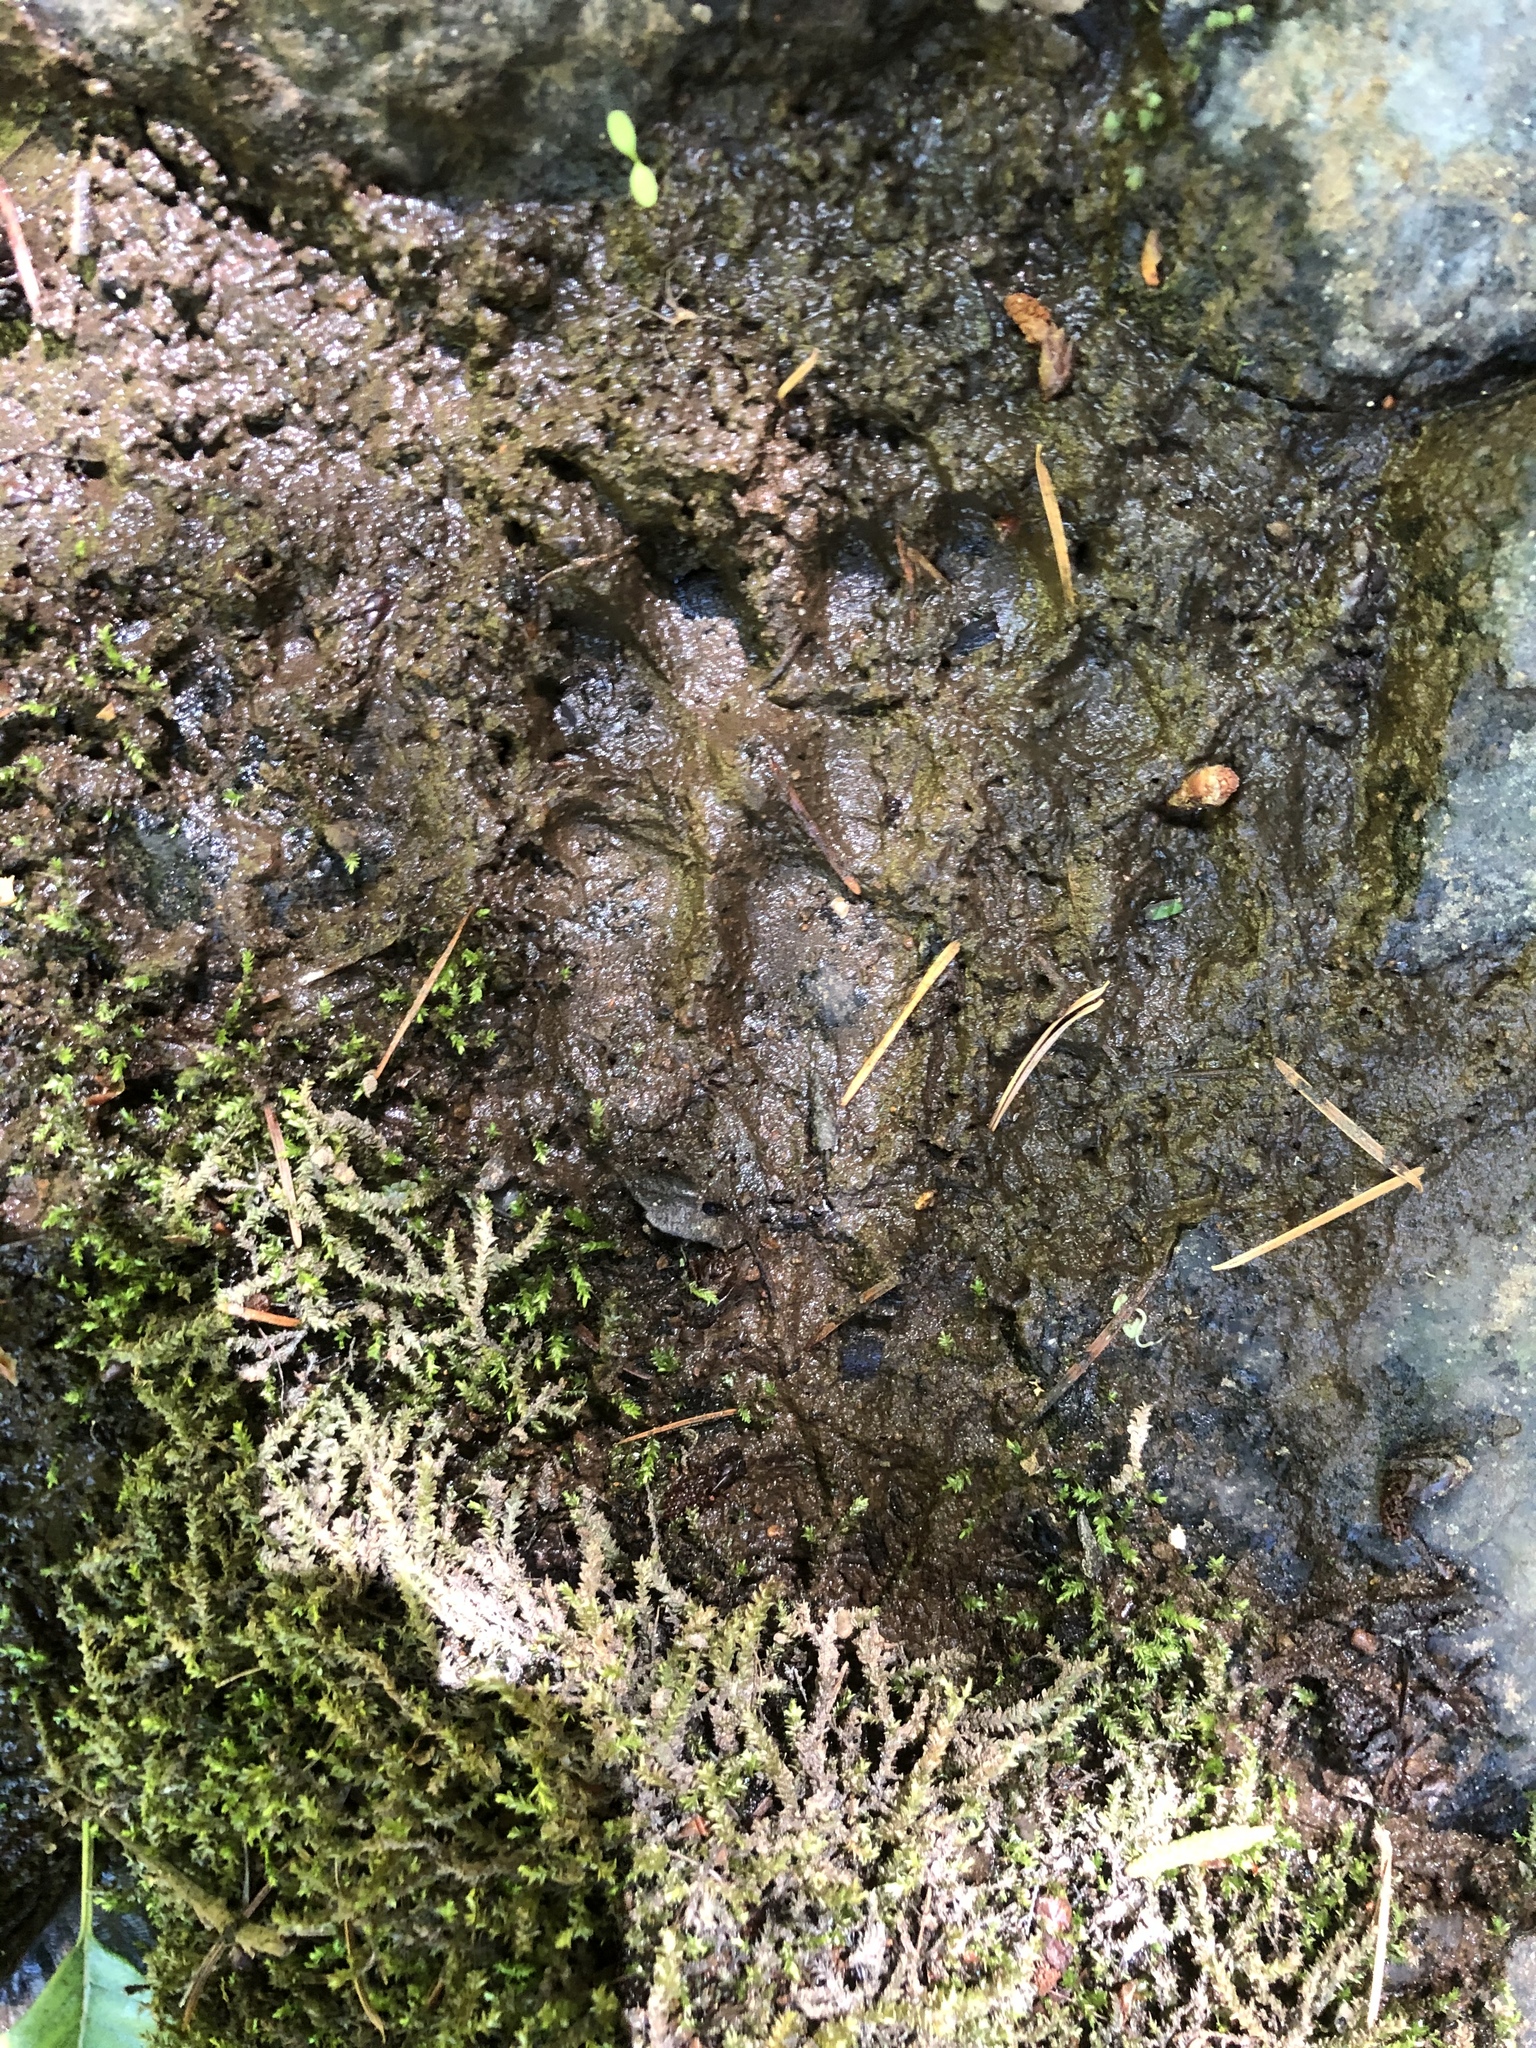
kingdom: Animalia
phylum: Chordata
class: Mammalia
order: Carnivora
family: Canidae
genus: Urocyon
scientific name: Urocyon cinereoargenteus
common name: Gray fox
